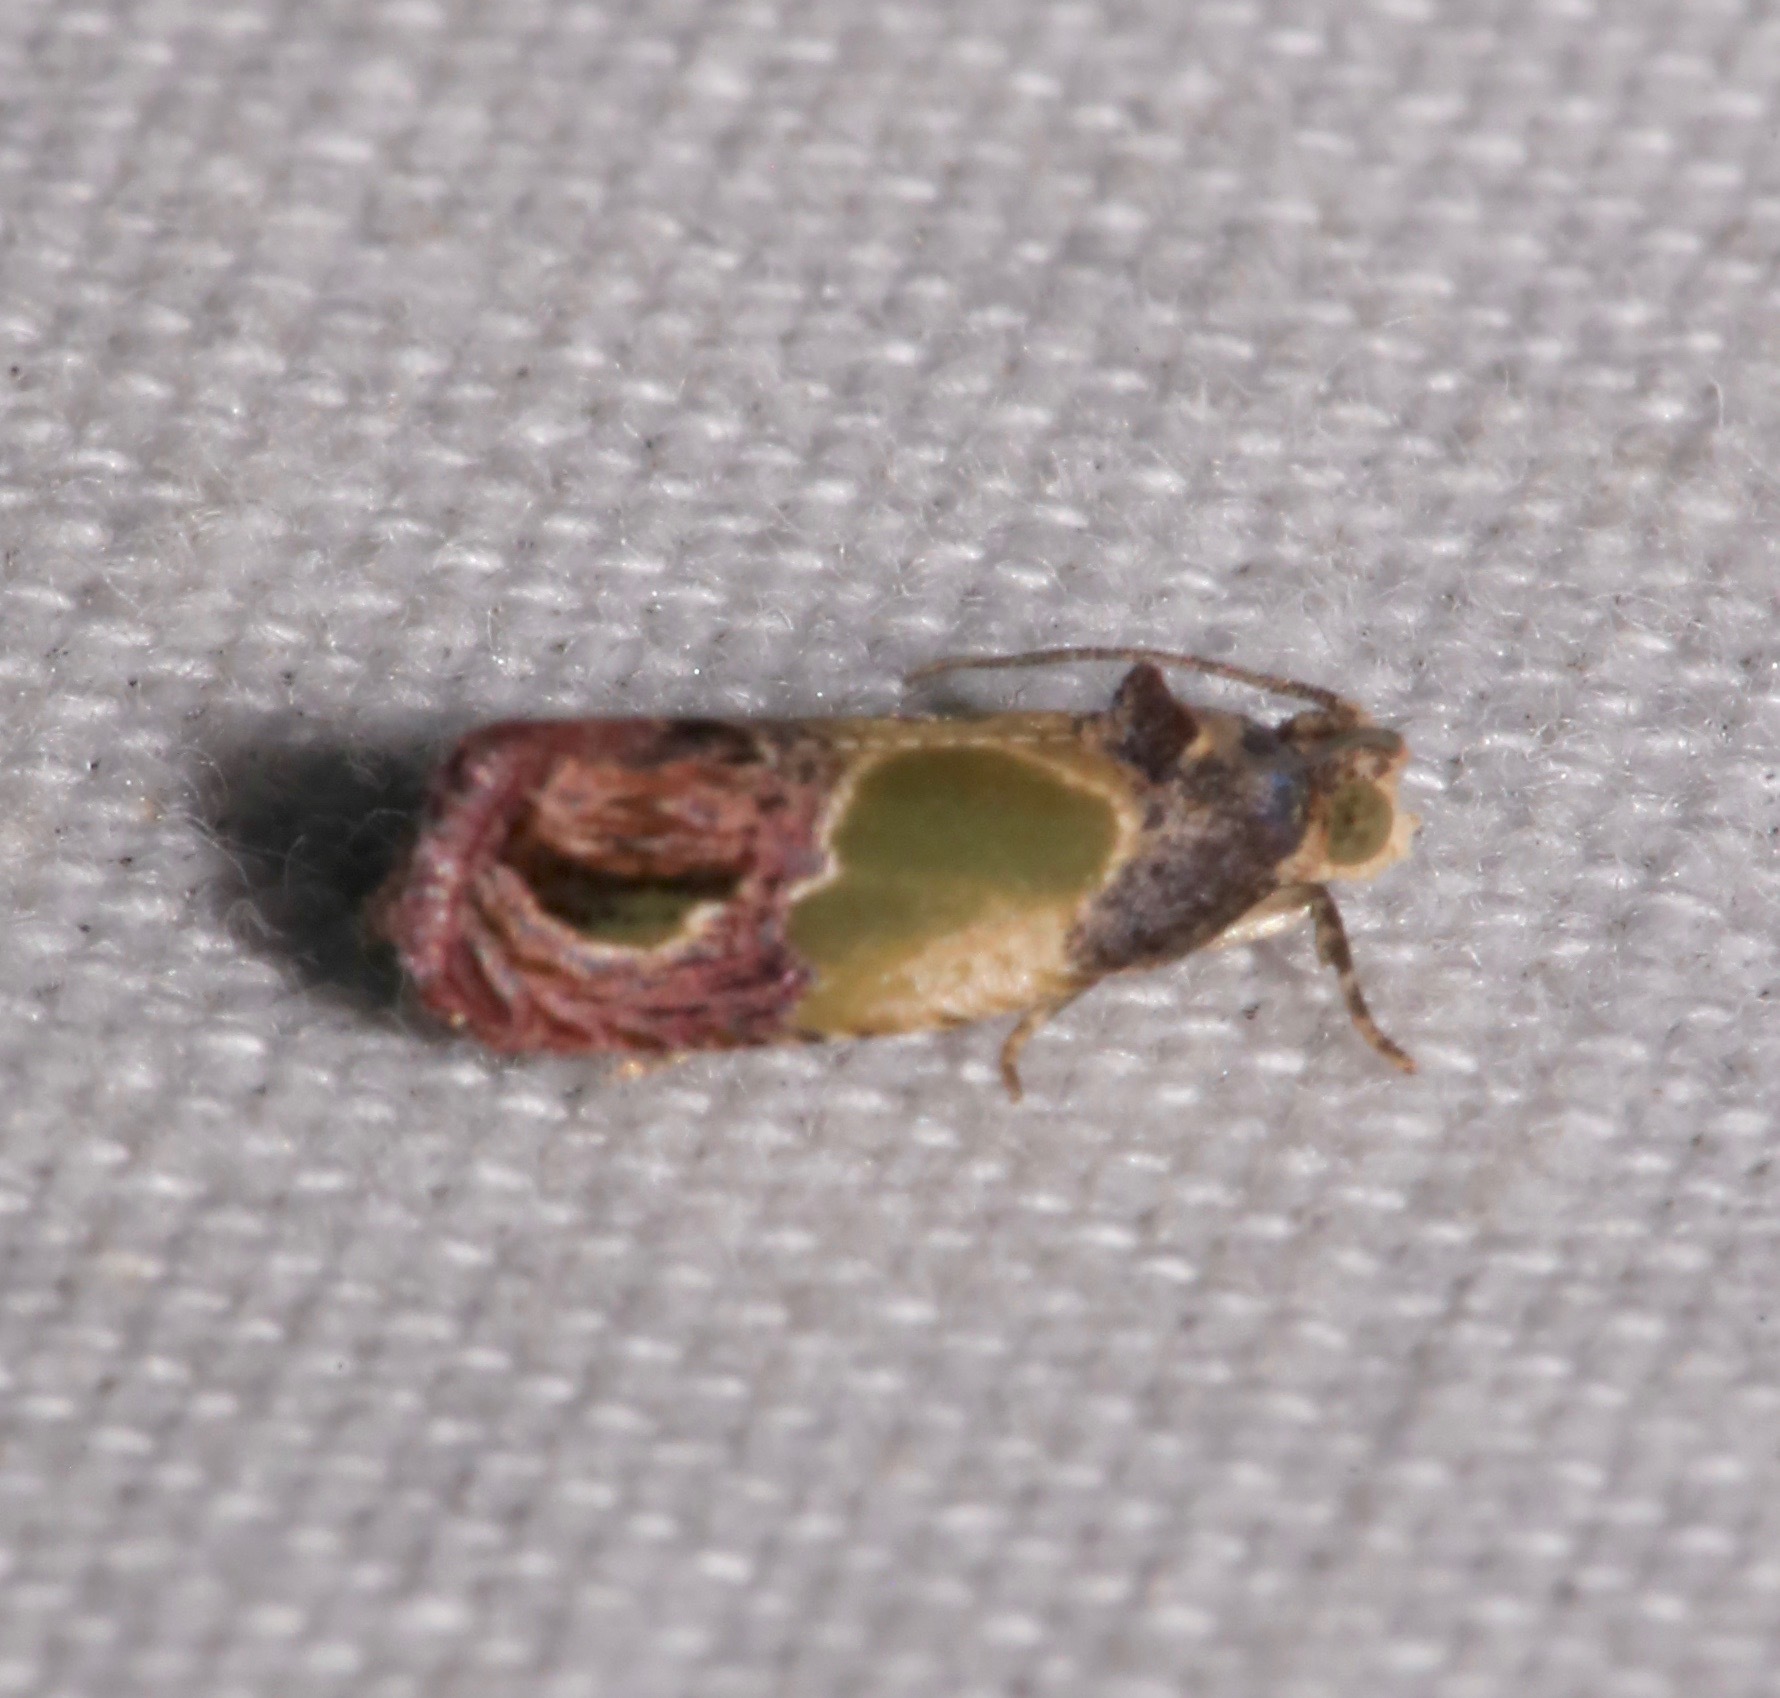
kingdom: Animalia
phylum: Arthropoda
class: Insecta
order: Lepidoptera
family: Tortricidae
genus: Eumarozia
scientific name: Eumarozia malachitana
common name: Sculptured moth
